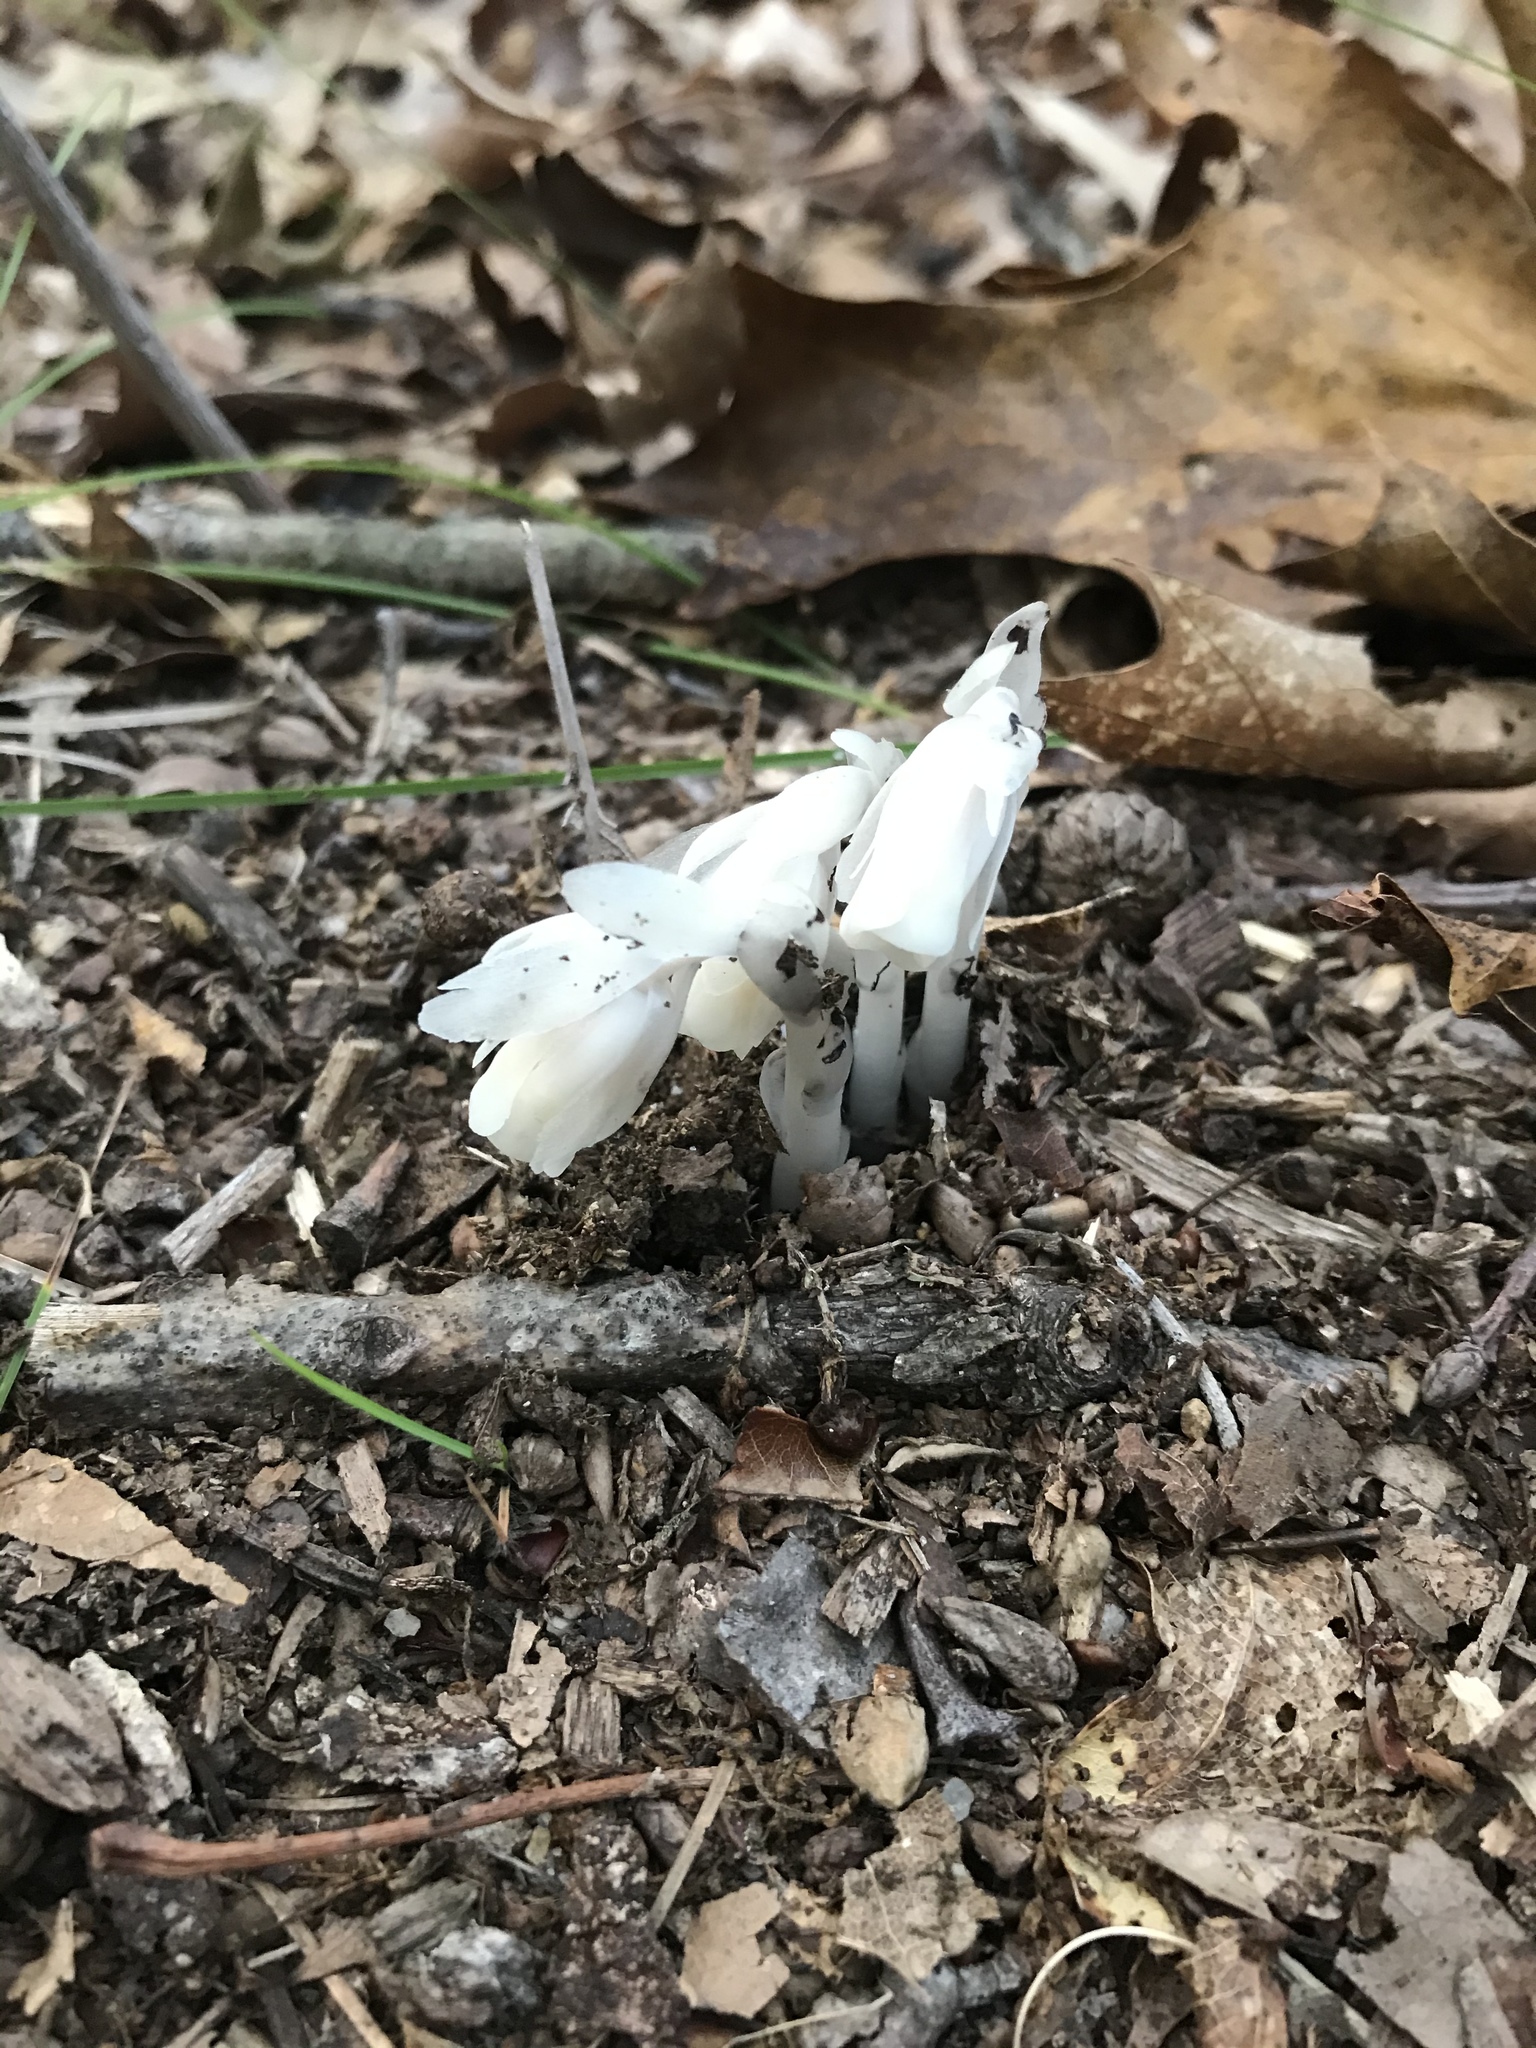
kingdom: Plantae
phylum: Tracheophyta
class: Magnoliopsida
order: Ericales
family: Ericaceae
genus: Monotropa
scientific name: Monotropa uniflora
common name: Convulsion root
